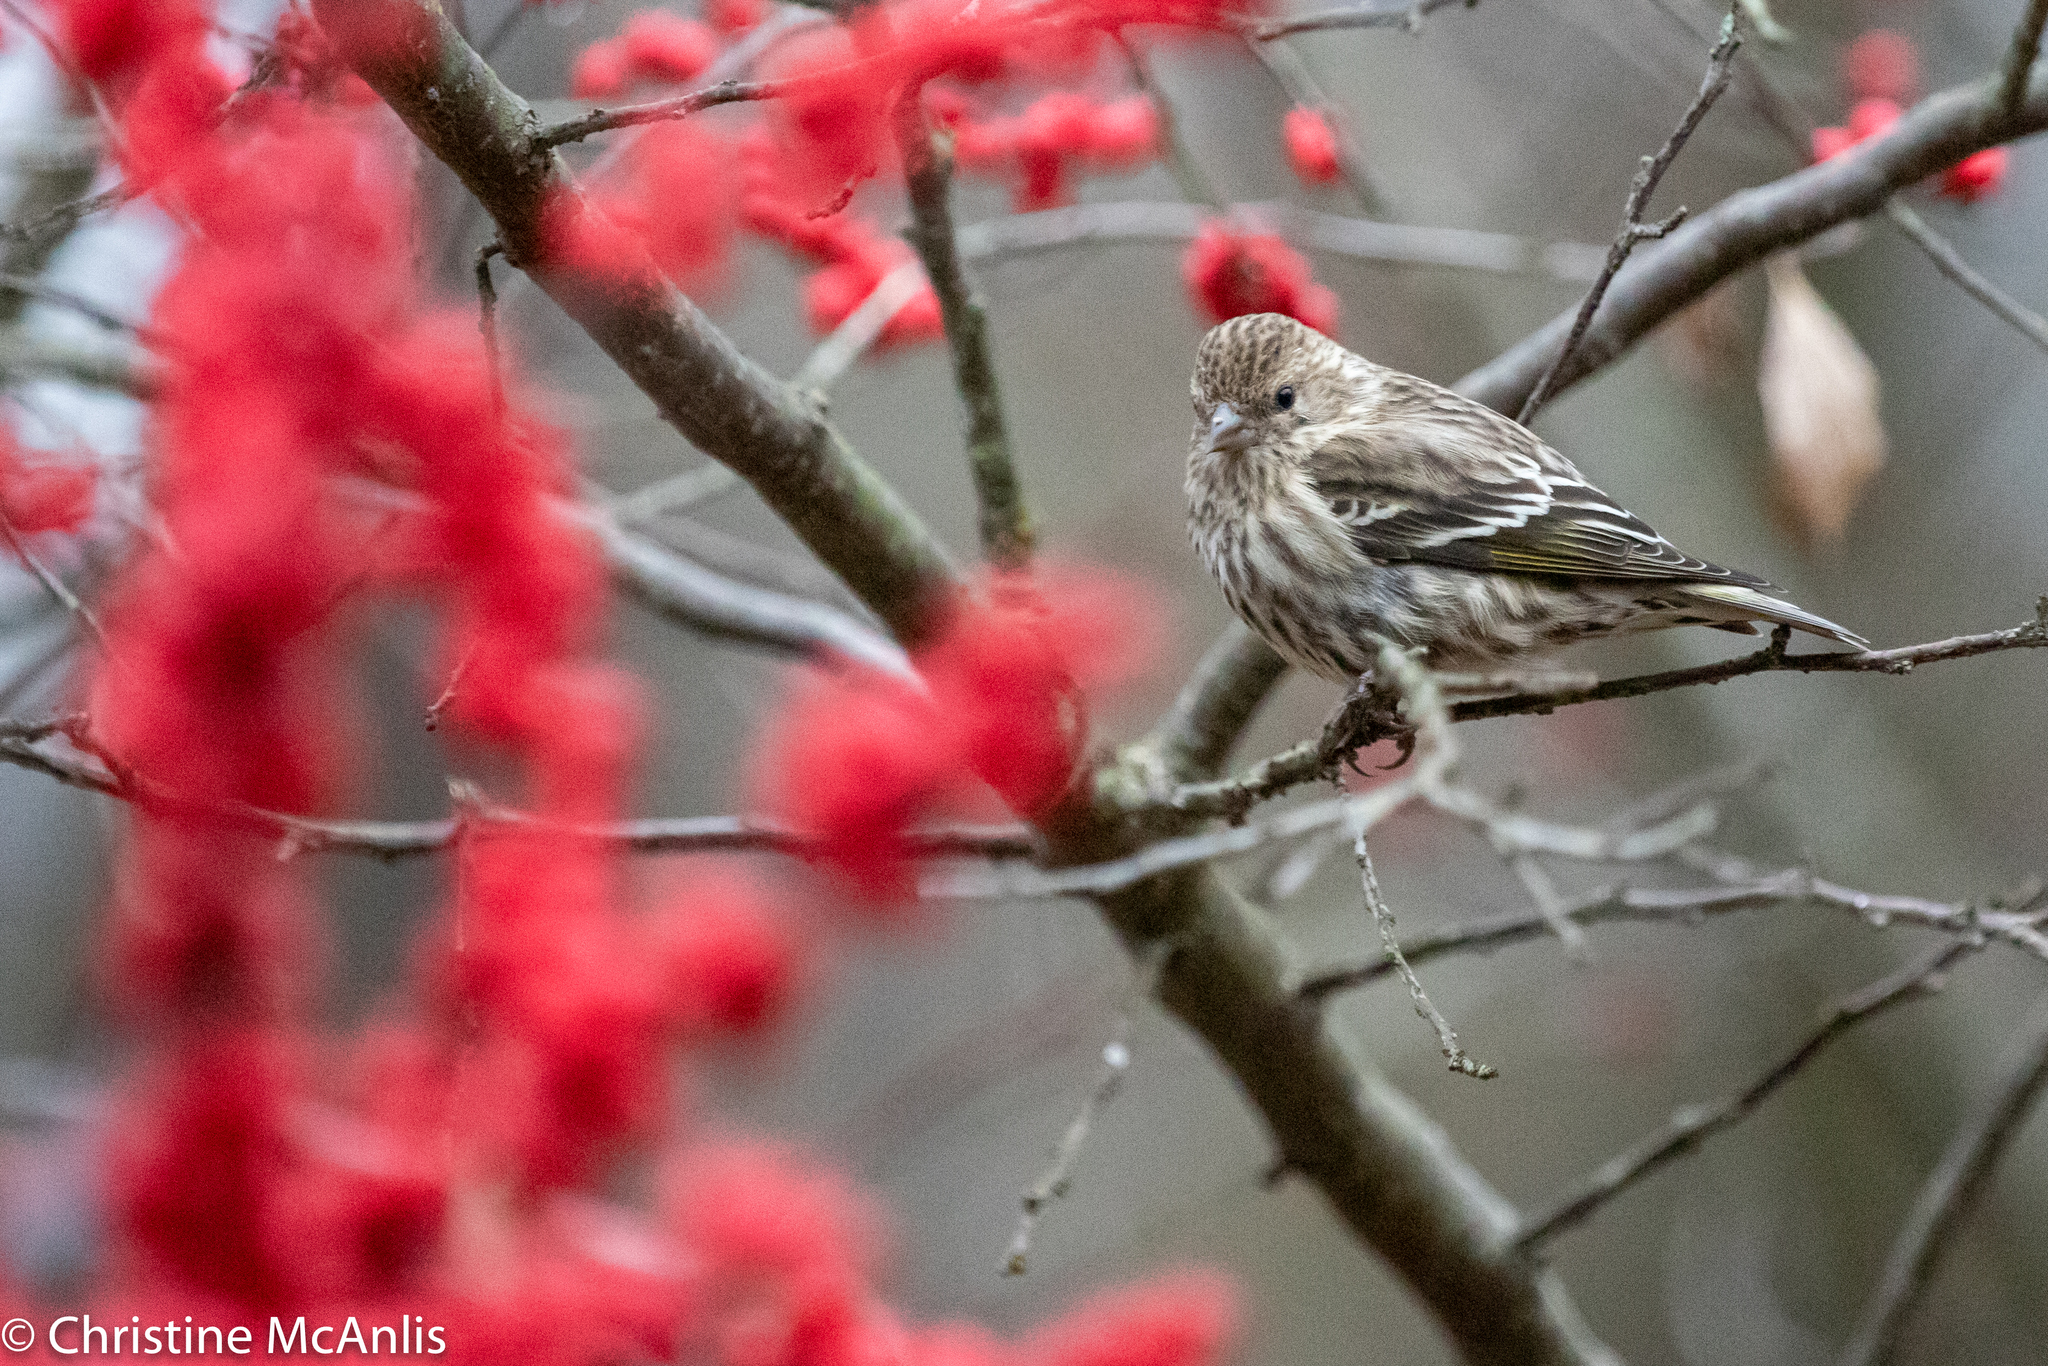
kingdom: Animalia
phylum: Chordata
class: Aves
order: Passeriformes
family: Fringillidae
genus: Spinus
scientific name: Spinus pinus
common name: Pine siskin
